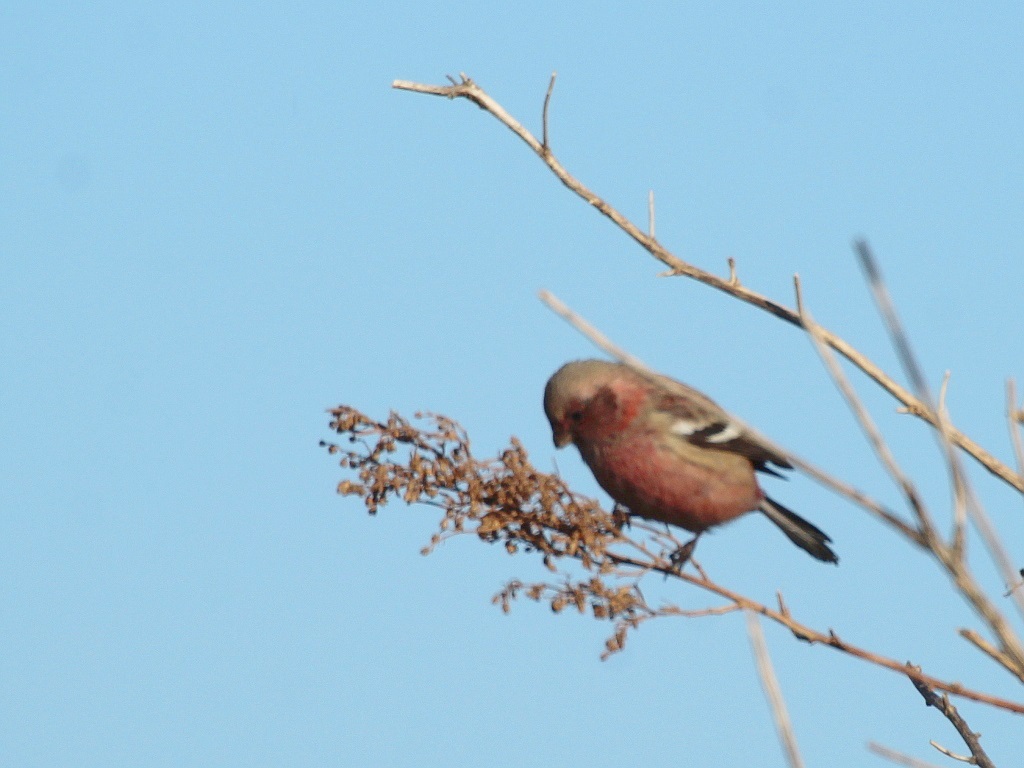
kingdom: Animalia
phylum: Chordata
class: Aves
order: Passeriformes
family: Fringillidae
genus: Carpodacus
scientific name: Carpodacus sibiricus
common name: Long-tailed rosefinch
